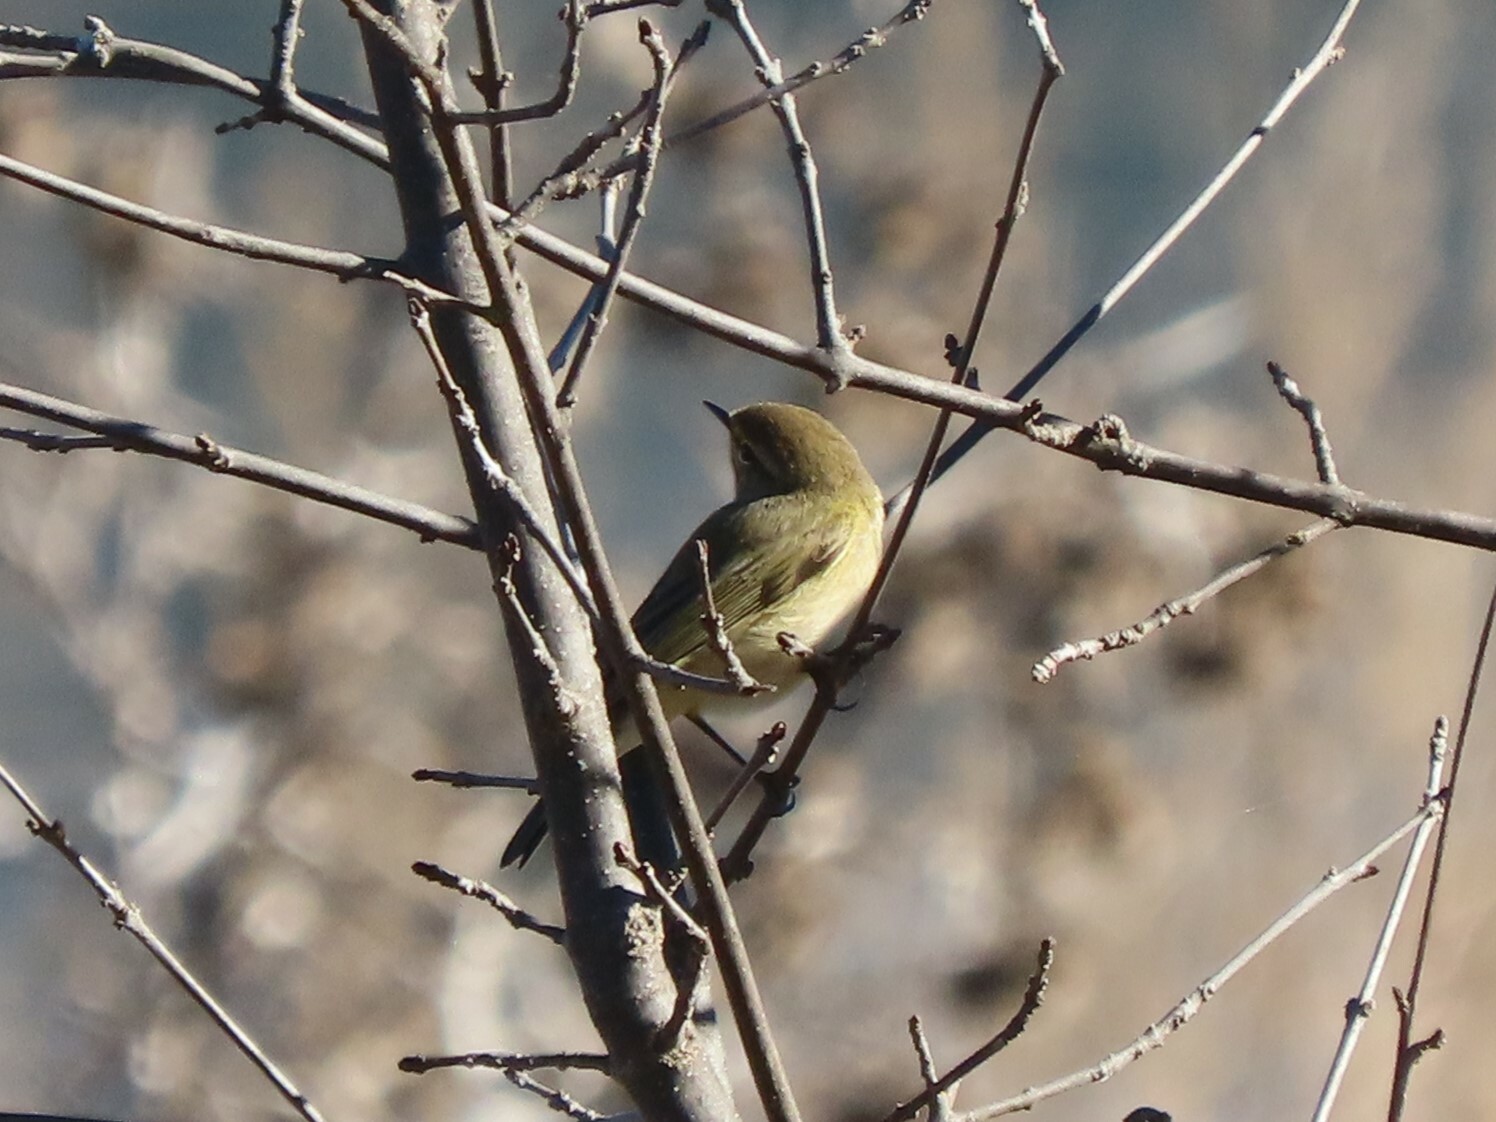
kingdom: Animalia
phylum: Chordata
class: Aves
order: Passeriformes
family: Phylloscopidae
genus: Phylloscopus
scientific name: Phylloscopus collybita
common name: Common chiffchaff
